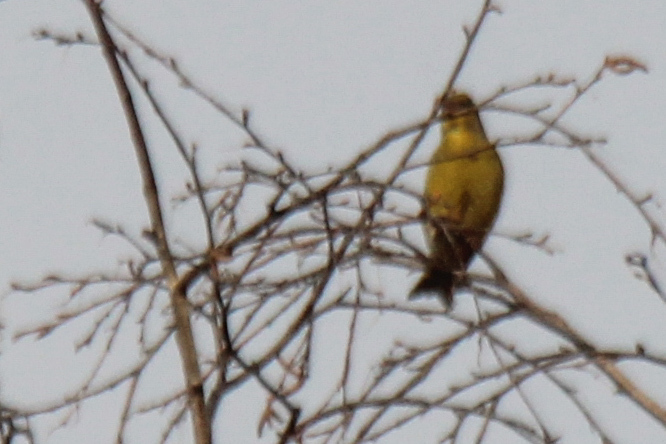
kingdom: Plantae
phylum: Tracheophyta
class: Liliopsida
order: Poales
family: Poaceae
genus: Chloris
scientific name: Chloris chloris
